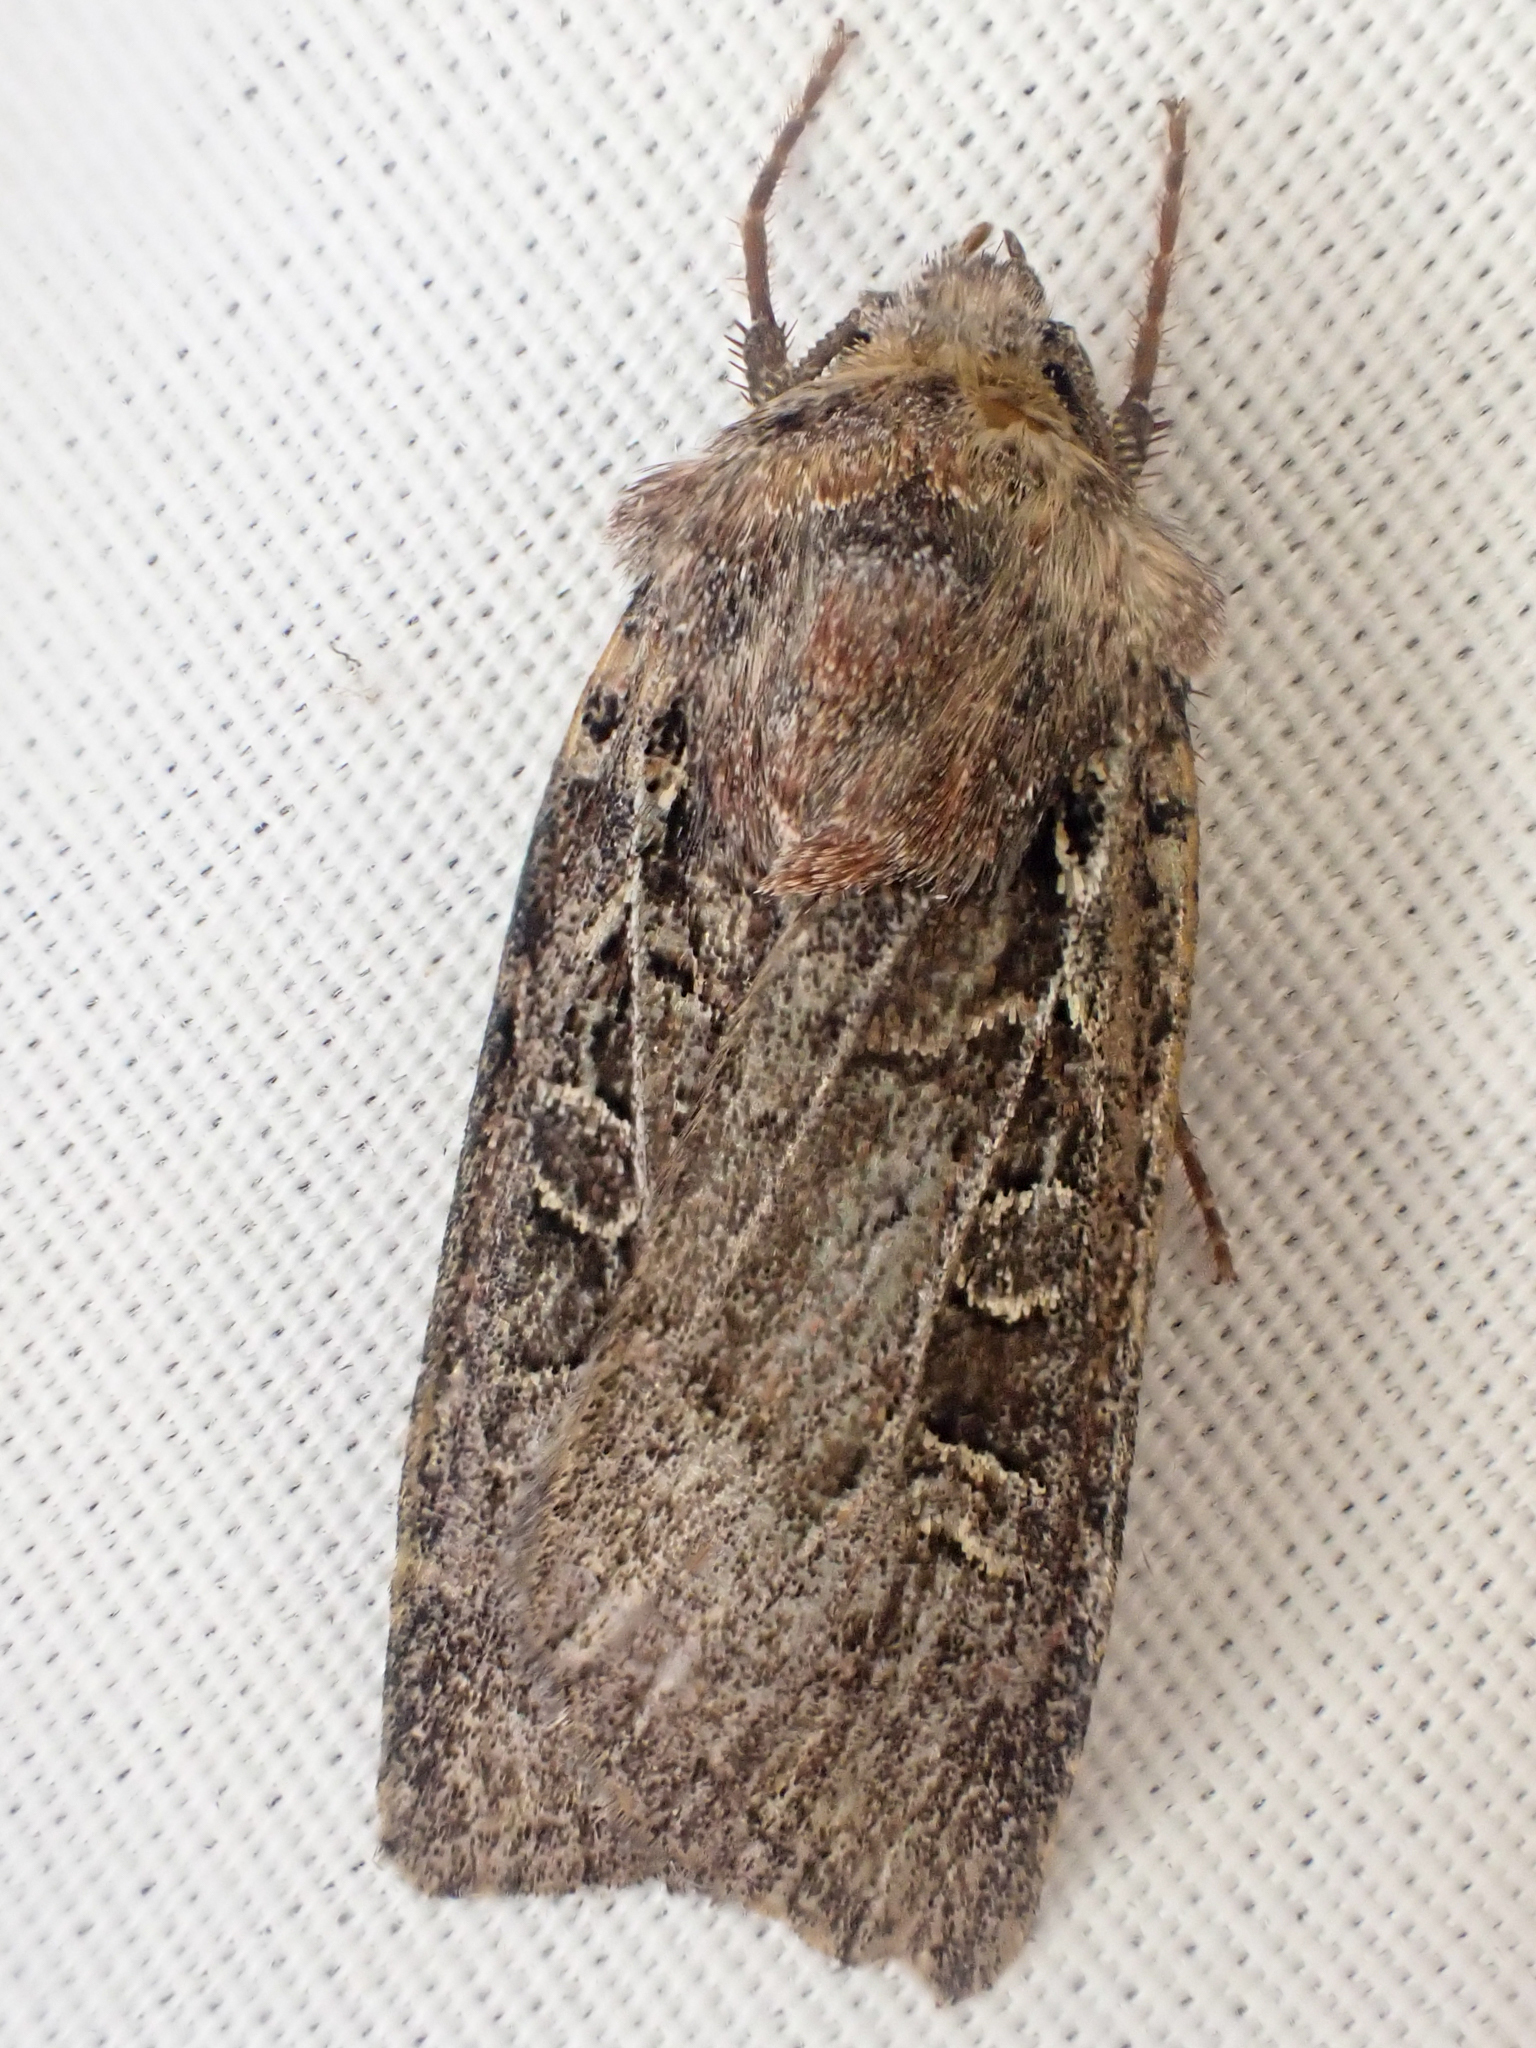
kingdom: Animalia
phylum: Arthropoda
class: Insecta
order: Lepidoptera
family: Noctuidae
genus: Euxoa
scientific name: Euxoa divergens
